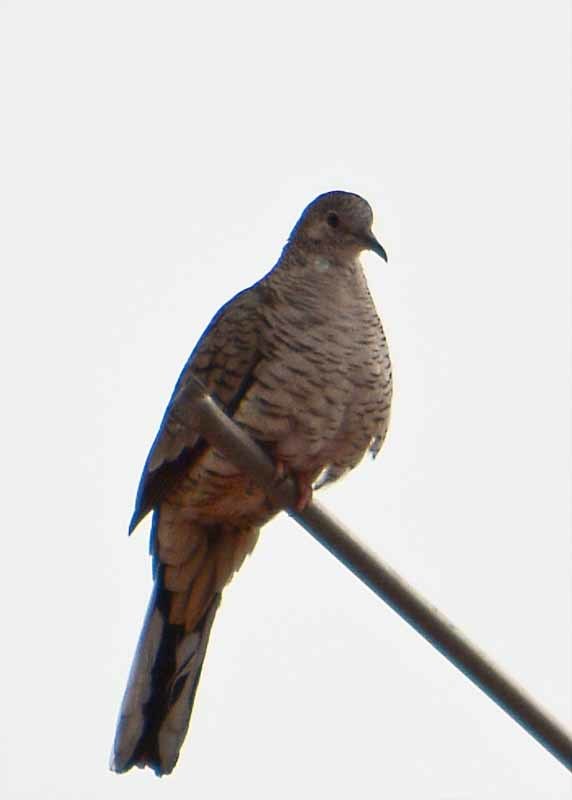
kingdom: Animalia
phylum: Chordata
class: Aves
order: Columbiformes
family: Columbidae
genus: Columbina
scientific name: Columbina inca
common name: Inca dove
